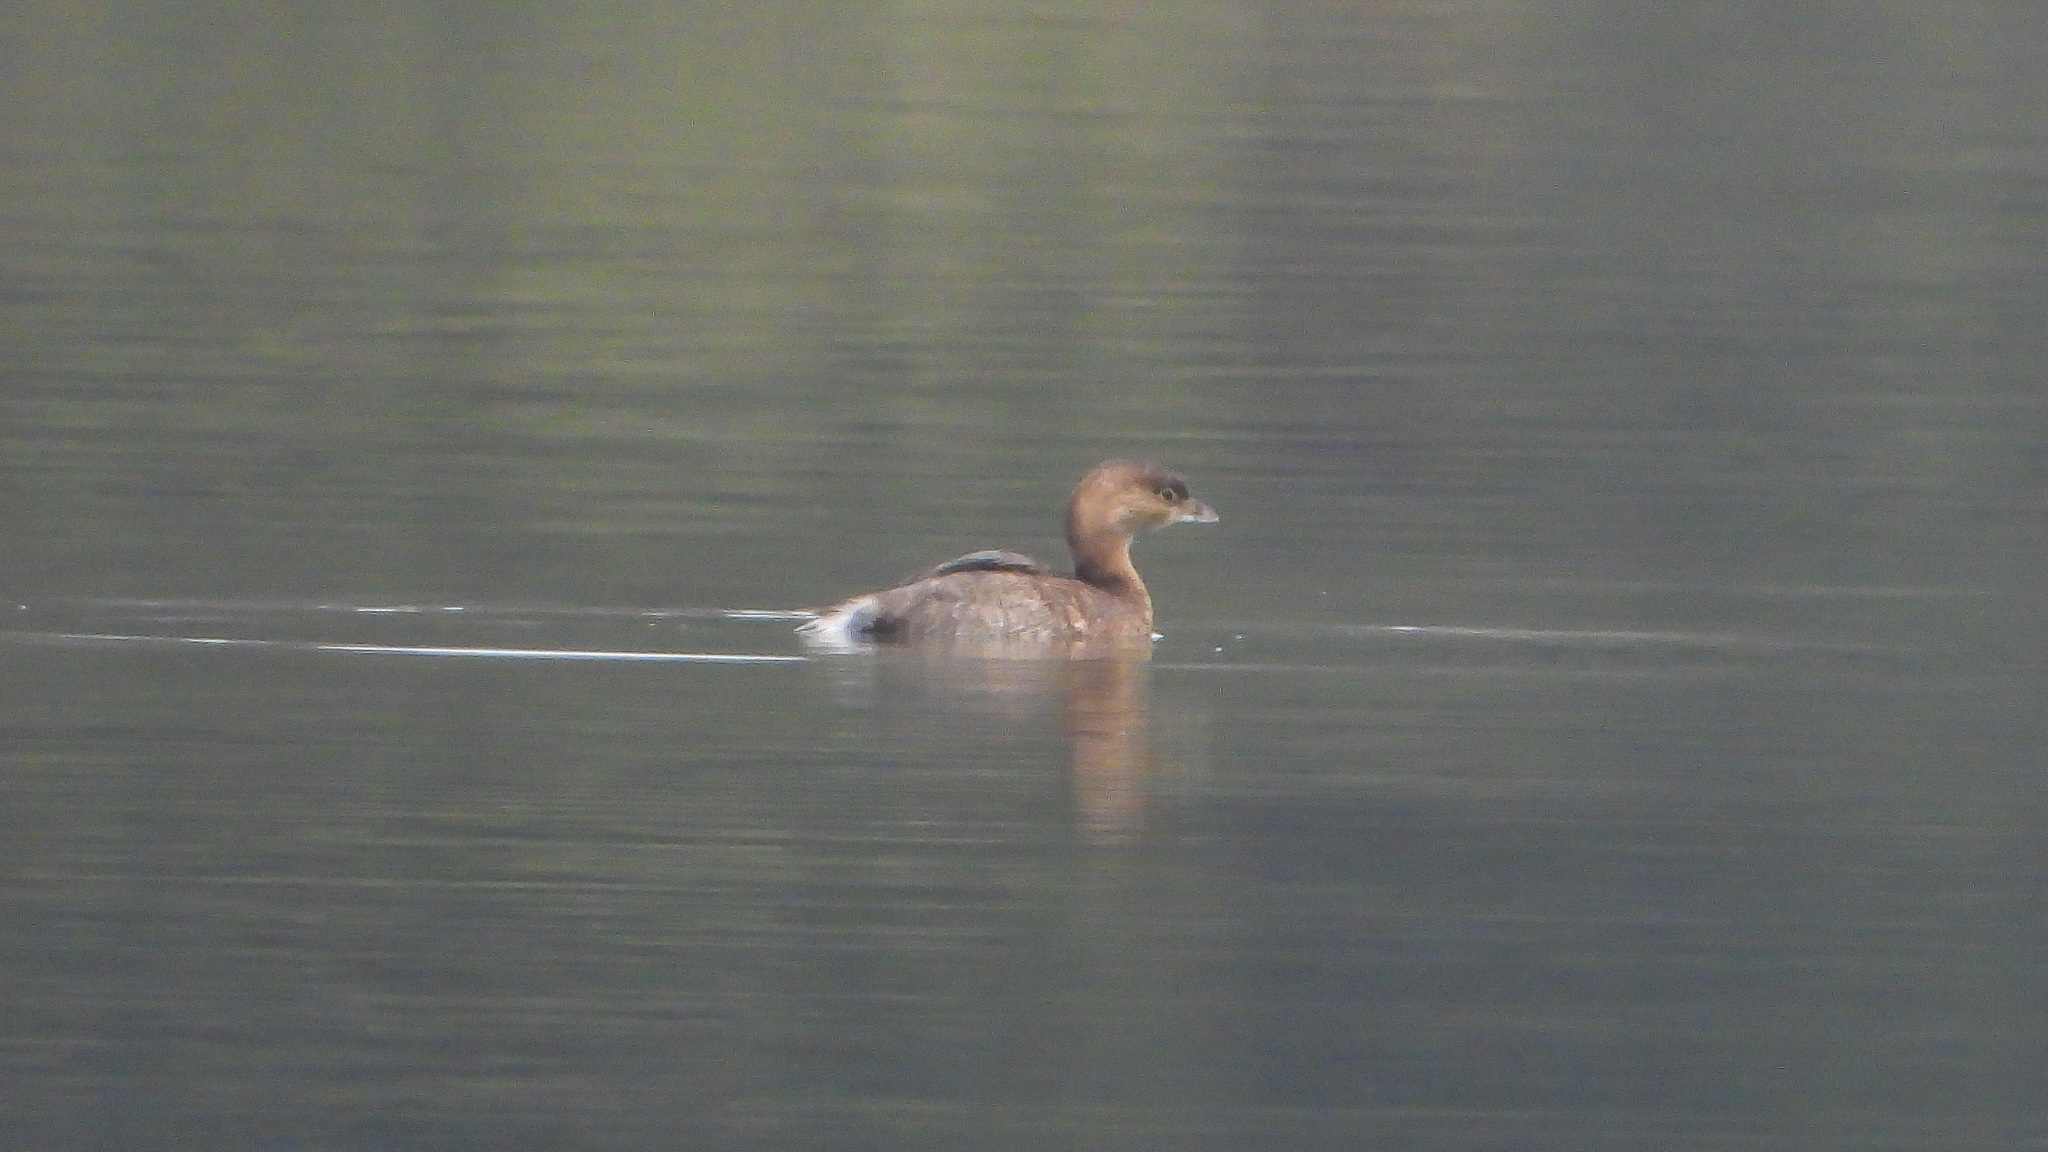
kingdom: Animalia
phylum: Chordata
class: Aves
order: Podicipediformes
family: Podicipedidae
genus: Podilymbus
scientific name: Podilymbus podiceps
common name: Pied-billed grebe
